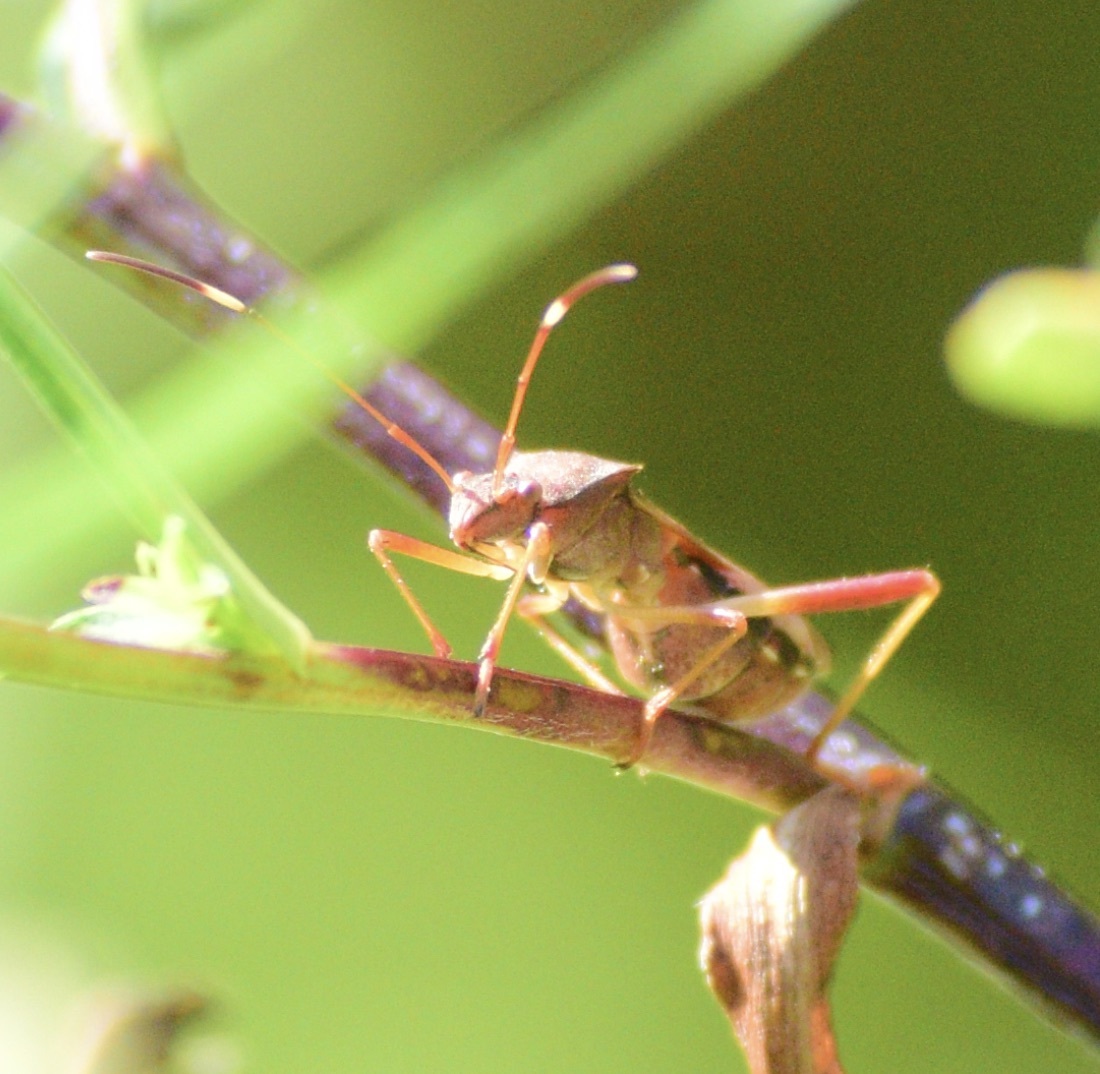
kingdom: Animalia
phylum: Arthropoda
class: Insecta
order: Hemiptera
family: Alydidae
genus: Megalotomus
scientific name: Megalotomus quinquespinosus
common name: Lupine bug
